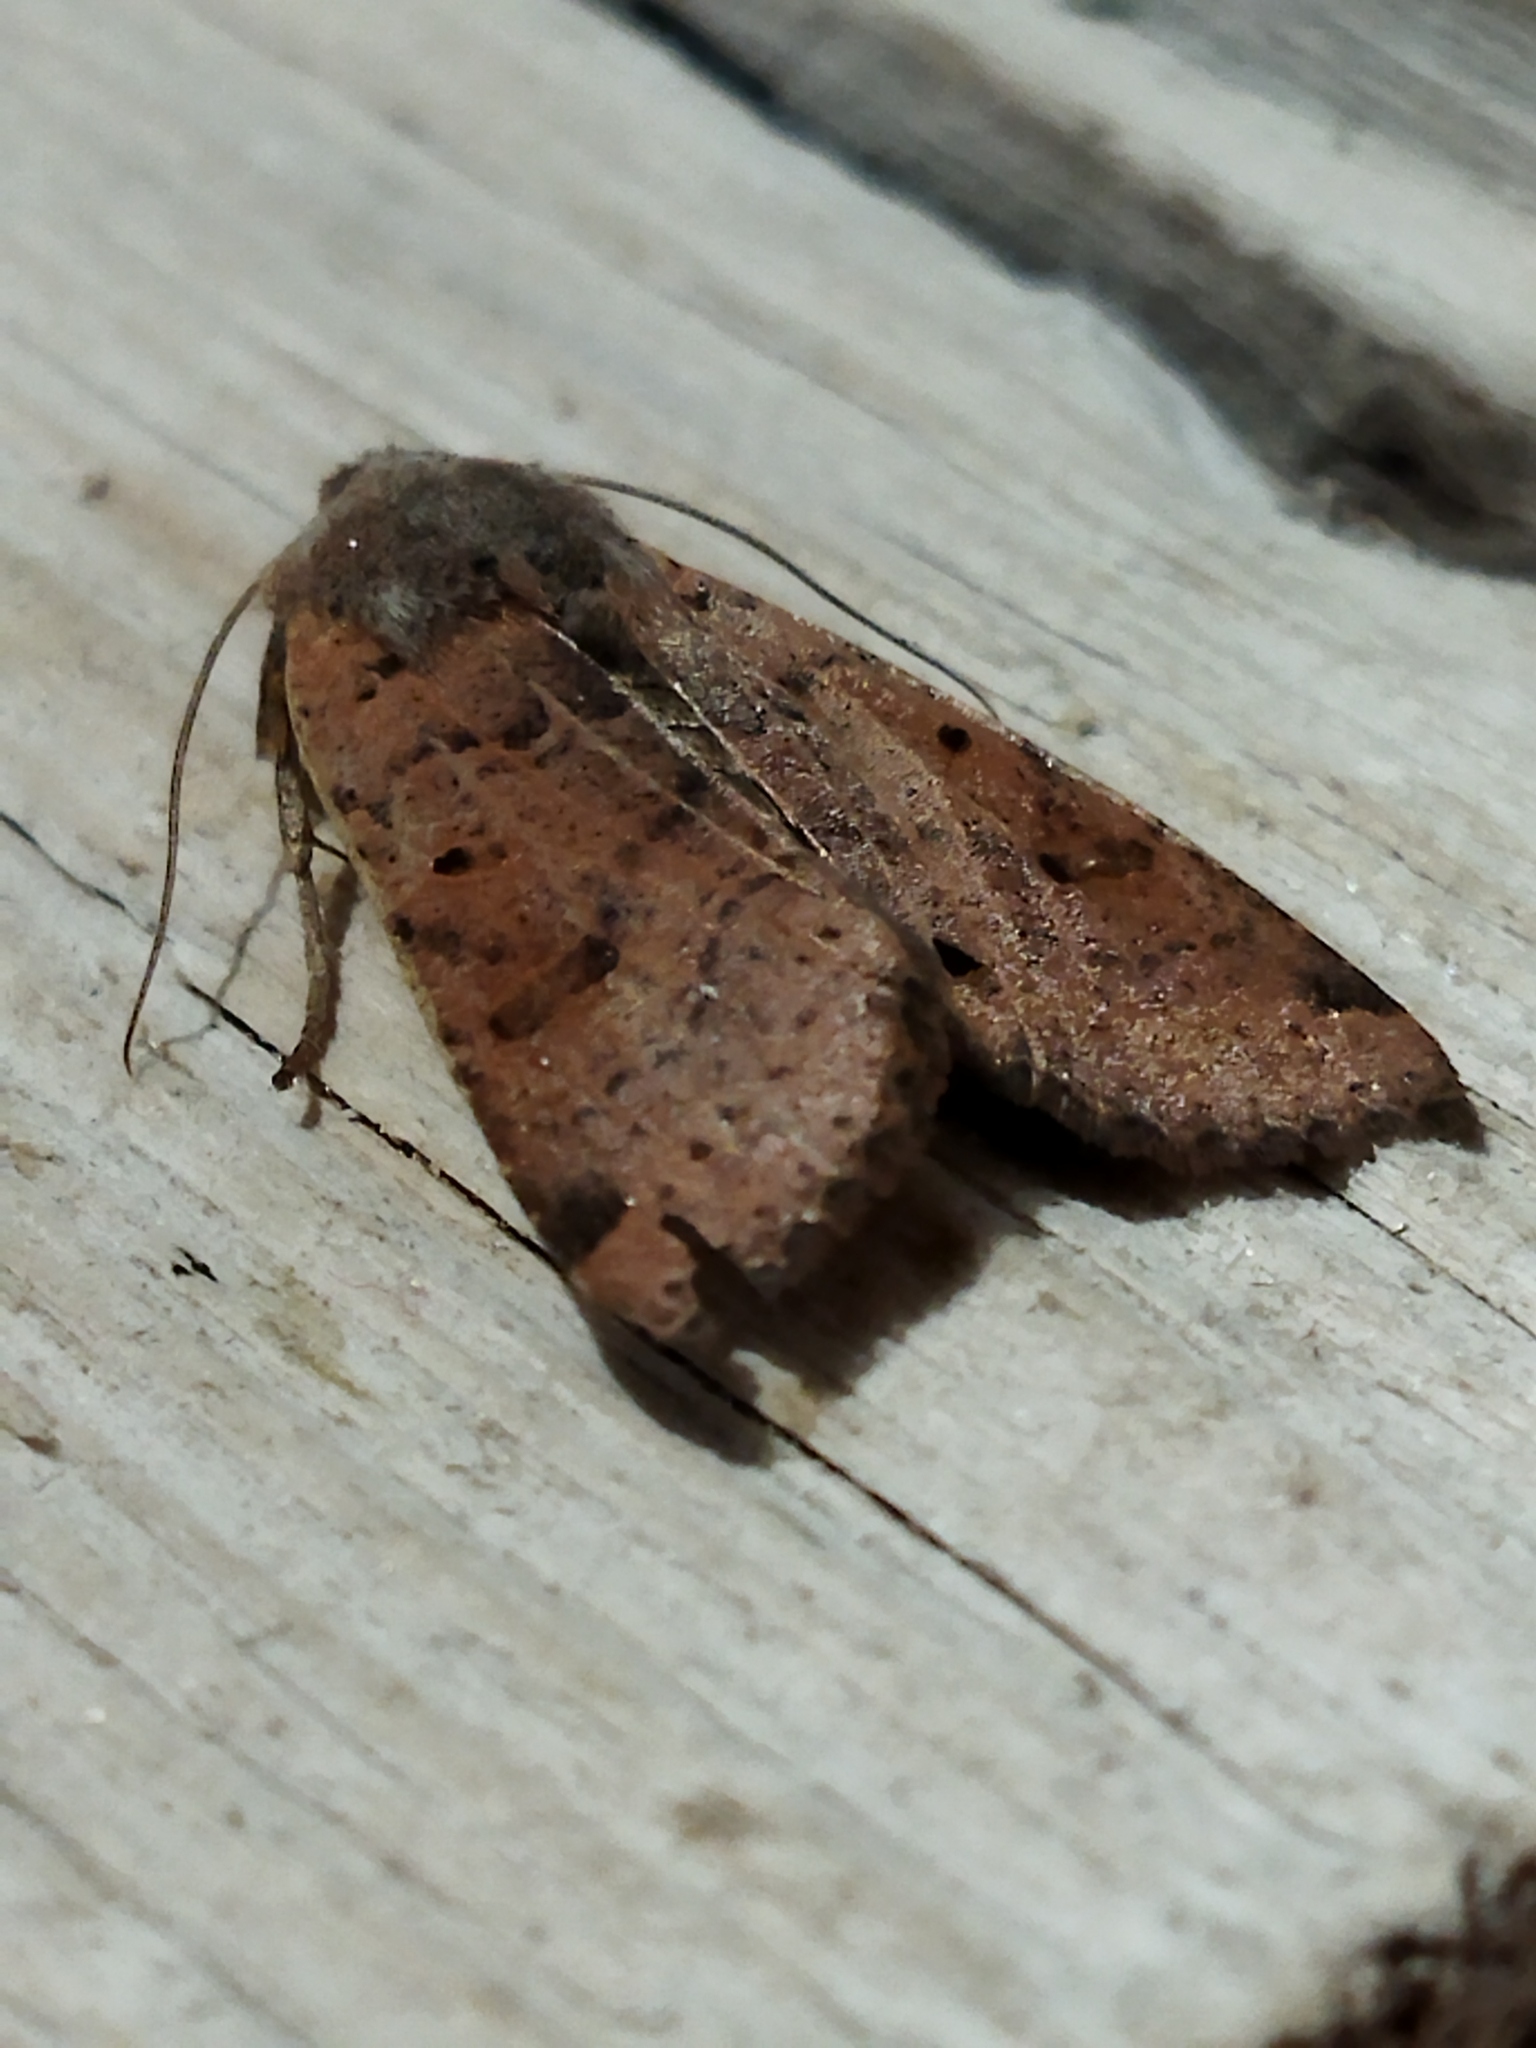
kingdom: Animalia
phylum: Arthropoda
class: Insecta
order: Lepidoptera
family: Noctuidae
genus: Agrochola
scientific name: Agrochola lychnidis
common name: Beaded chestnut
